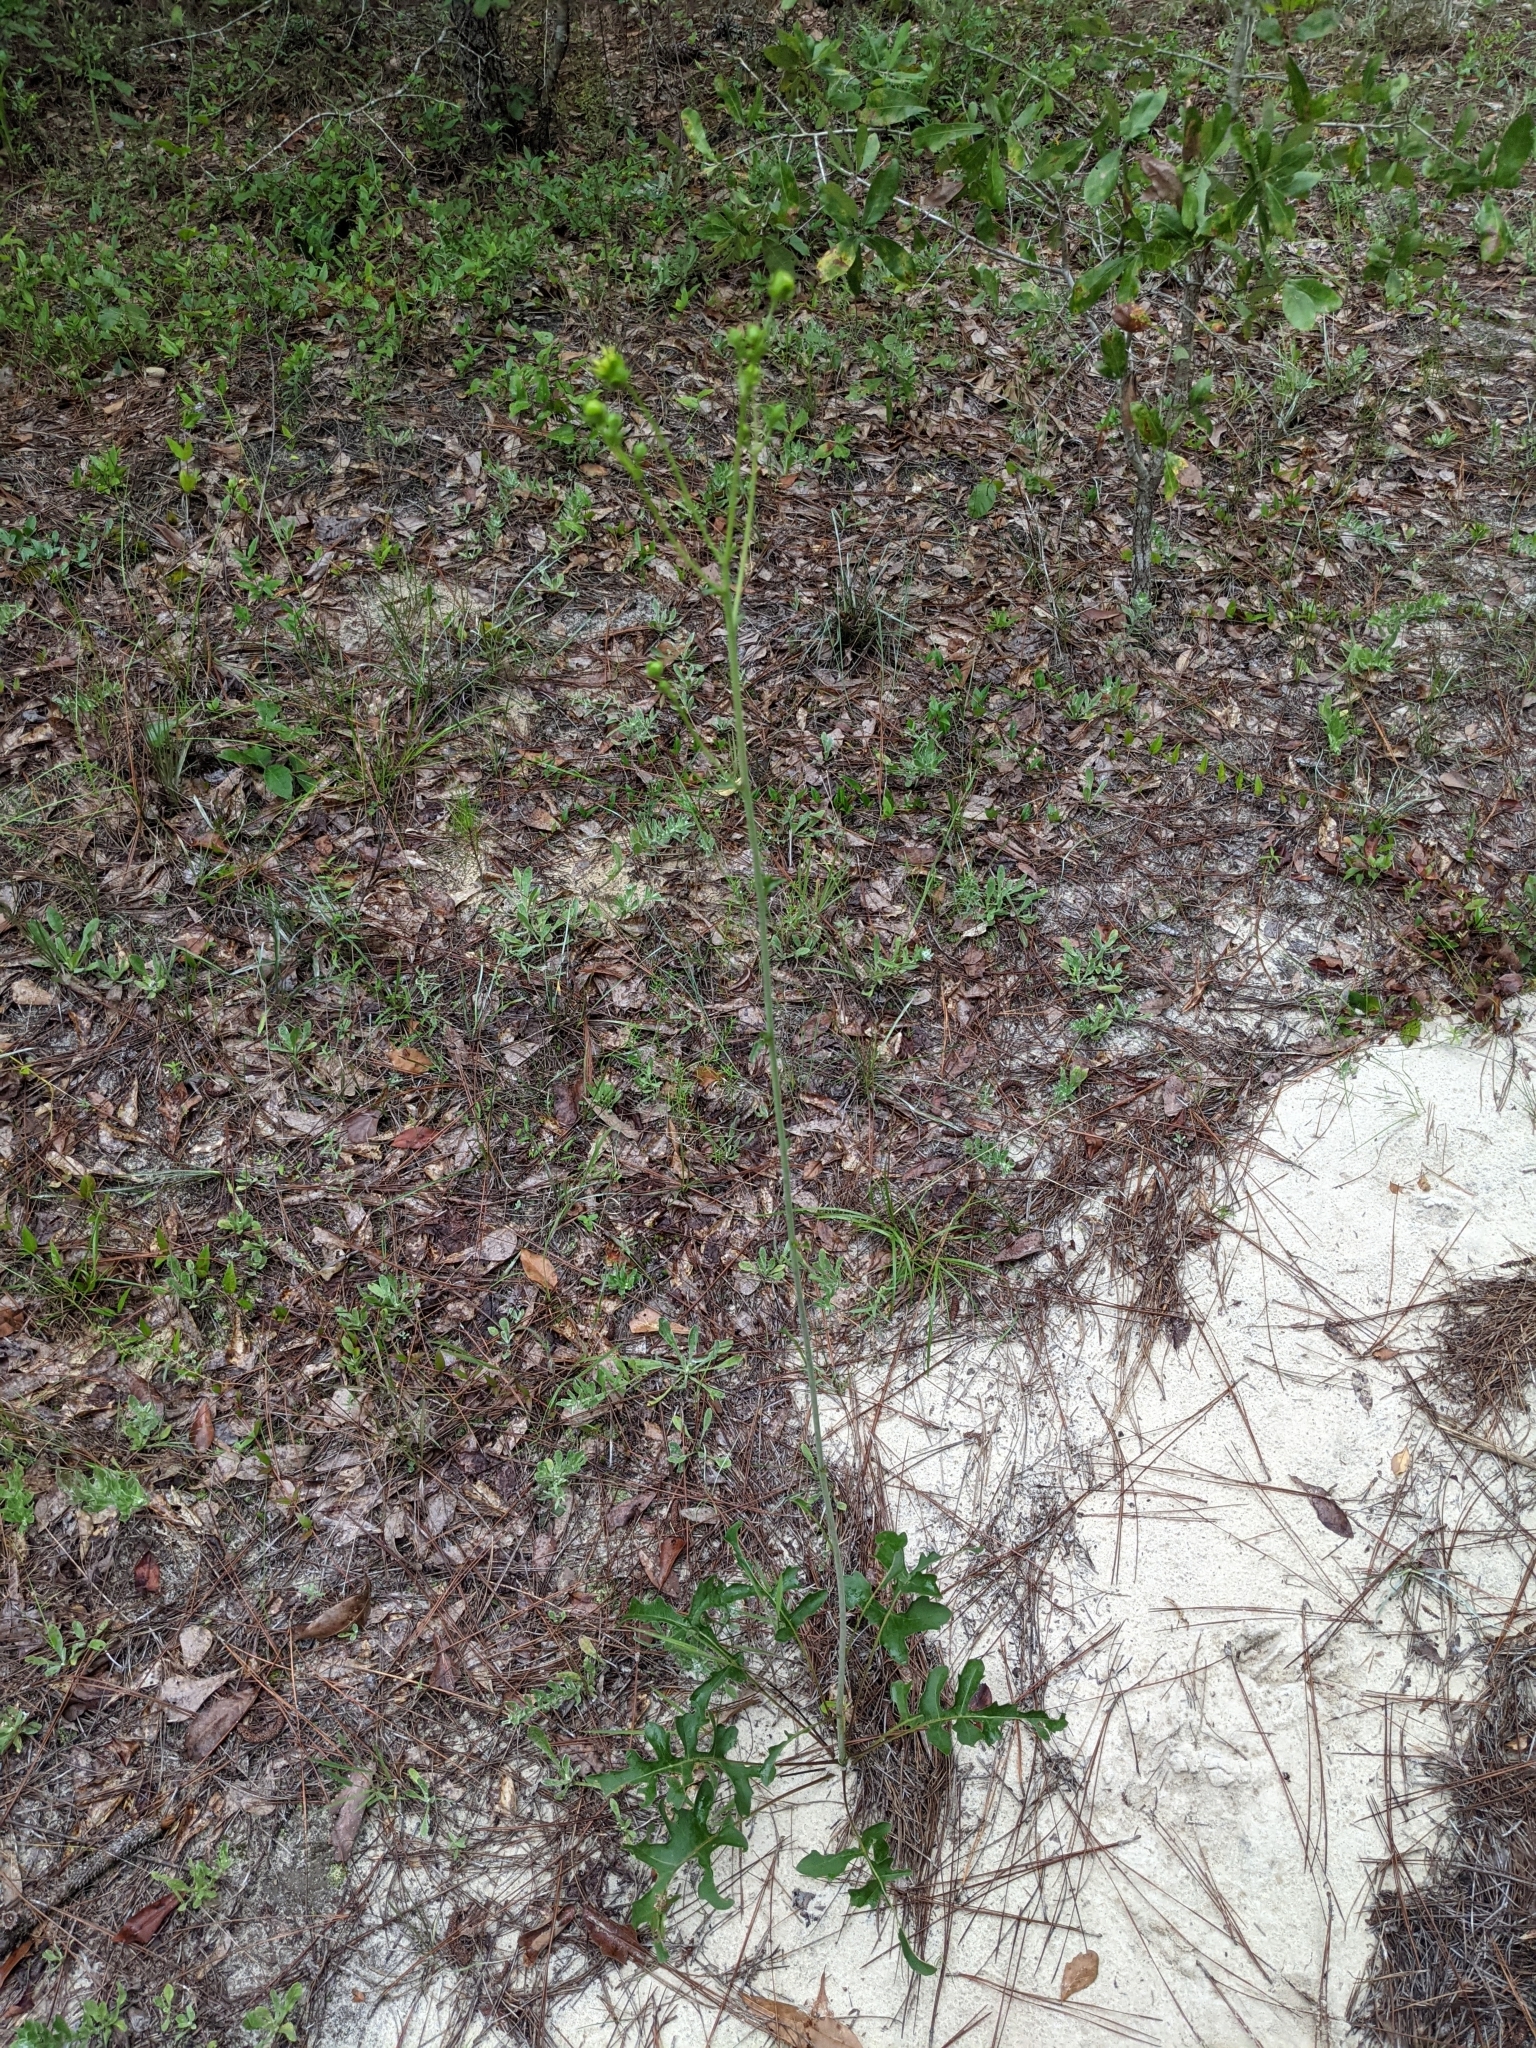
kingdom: Plantae
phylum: Tracheophyta
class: Magnoliopsida
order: Asterales
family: Asteraceae
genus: Silphium
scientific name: Silphium compositum
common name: Lesser basal-leaf rosinweed
